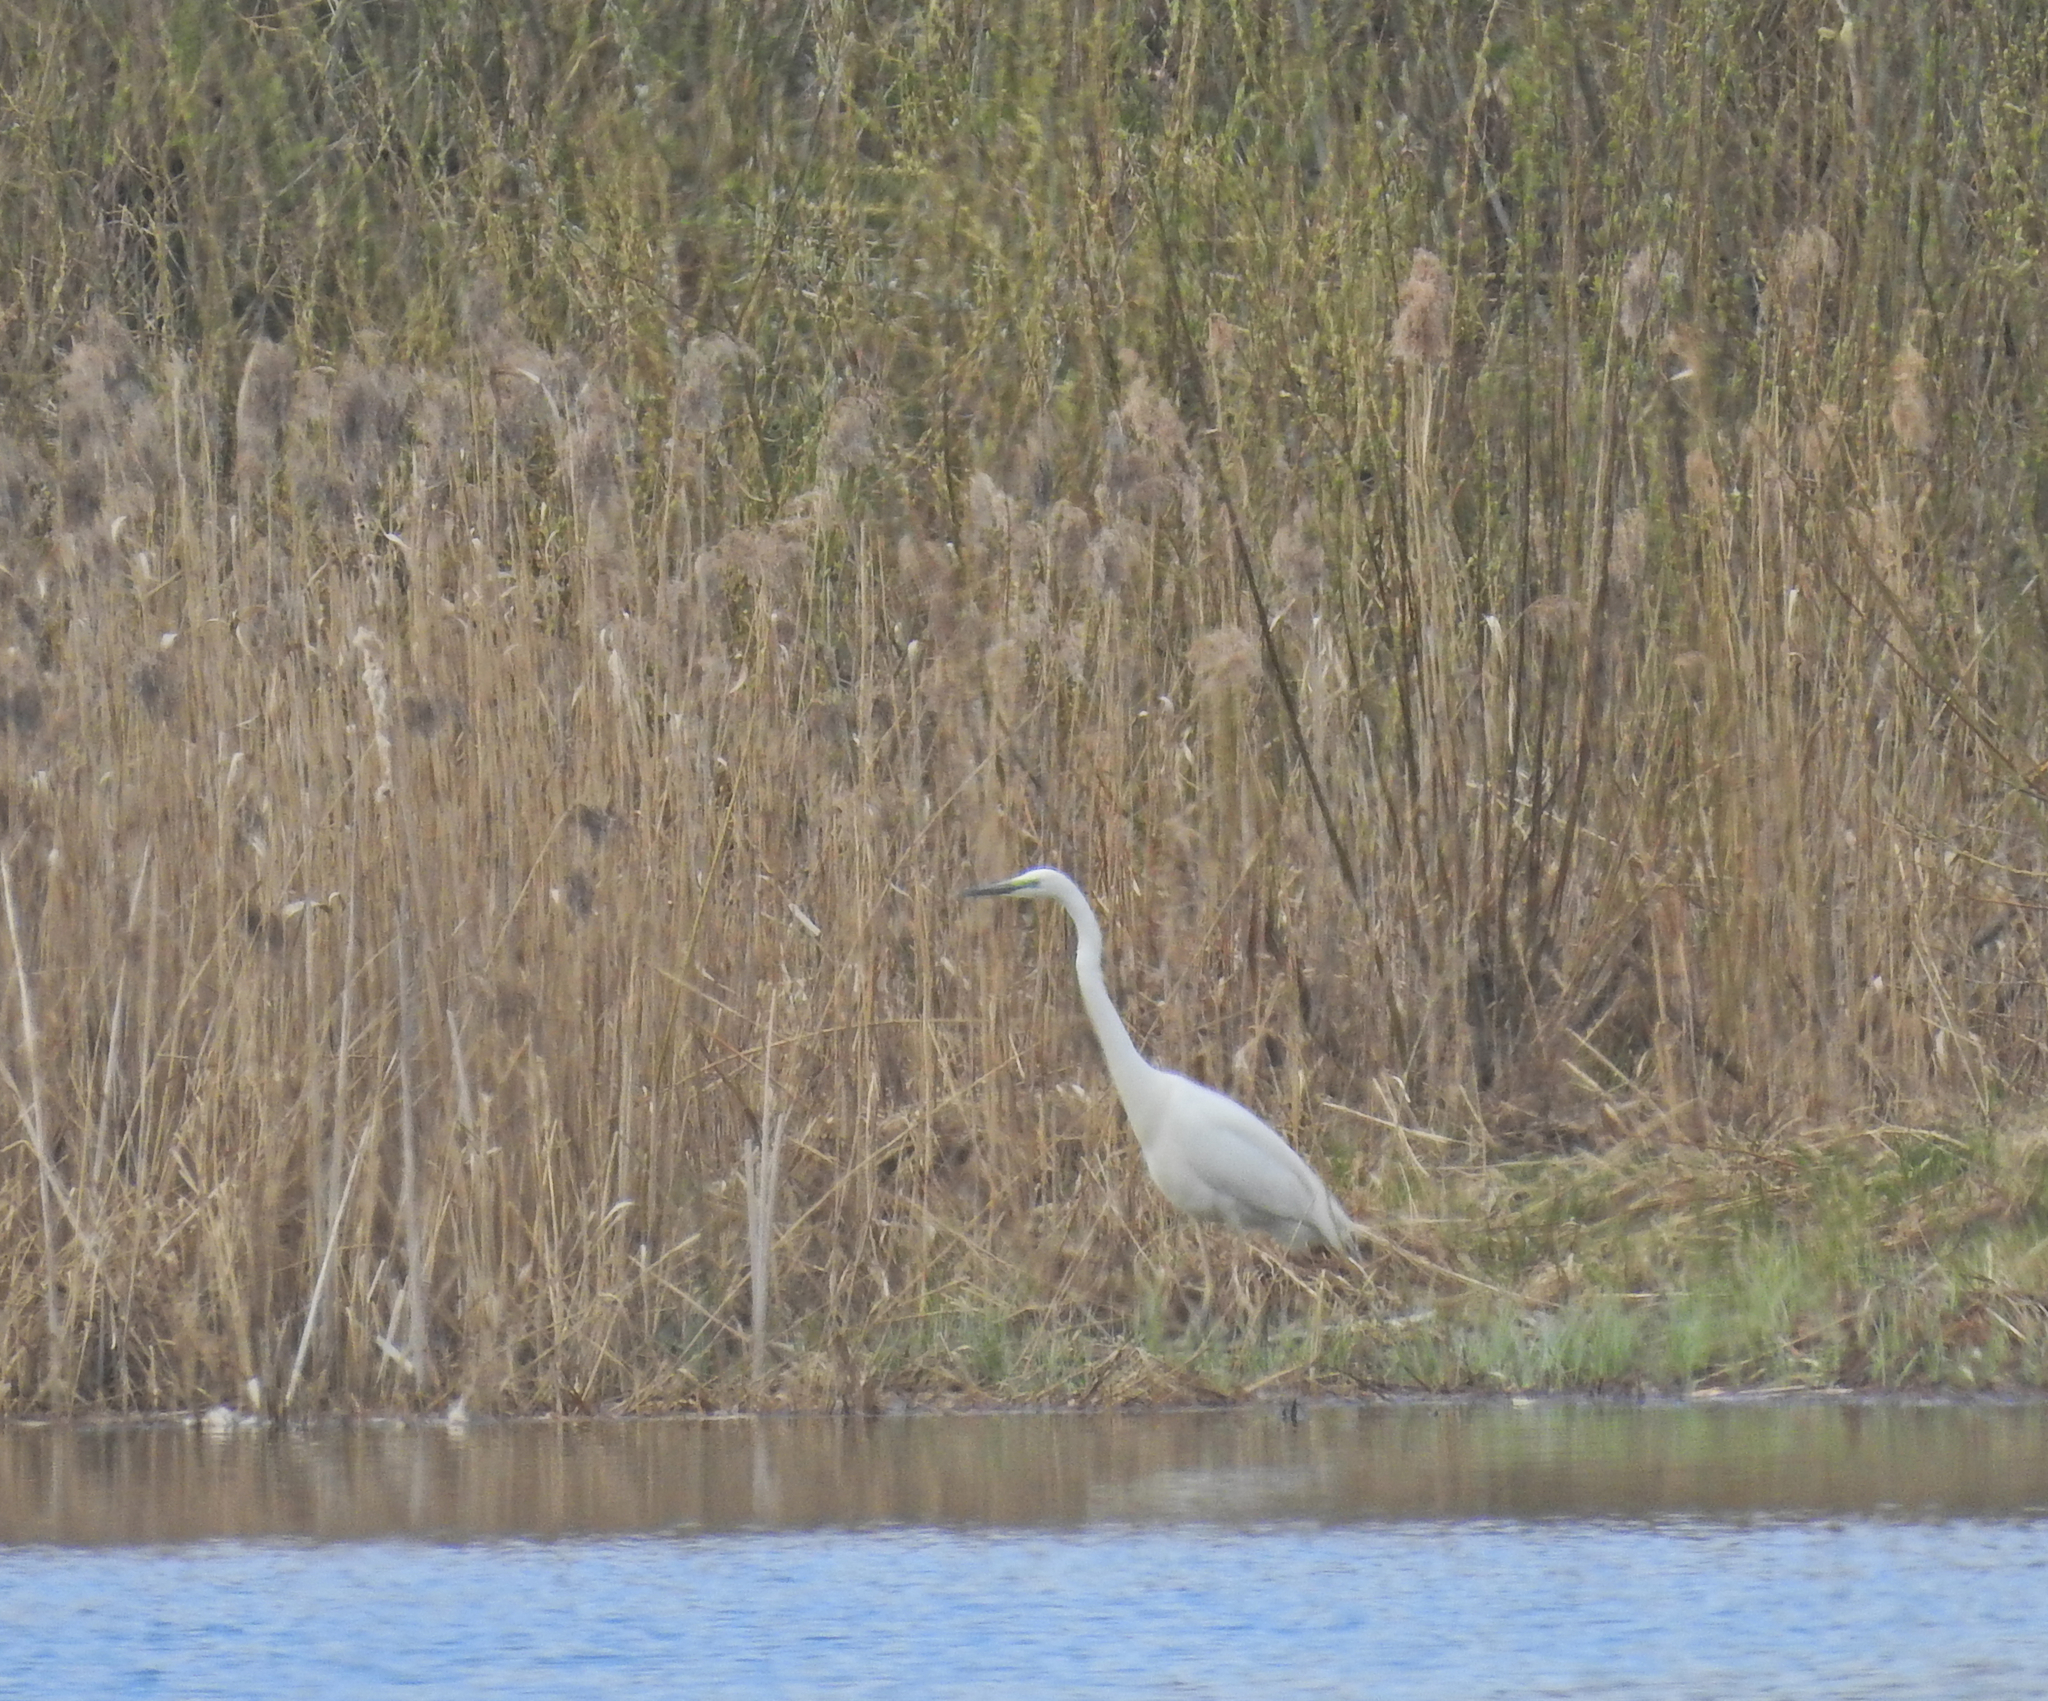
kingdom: Animalia
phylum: Chordata
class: Aves
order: Pelecaniformes
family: Ardeidae
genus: Ardea
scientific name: Ardea alba
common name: Great egret
